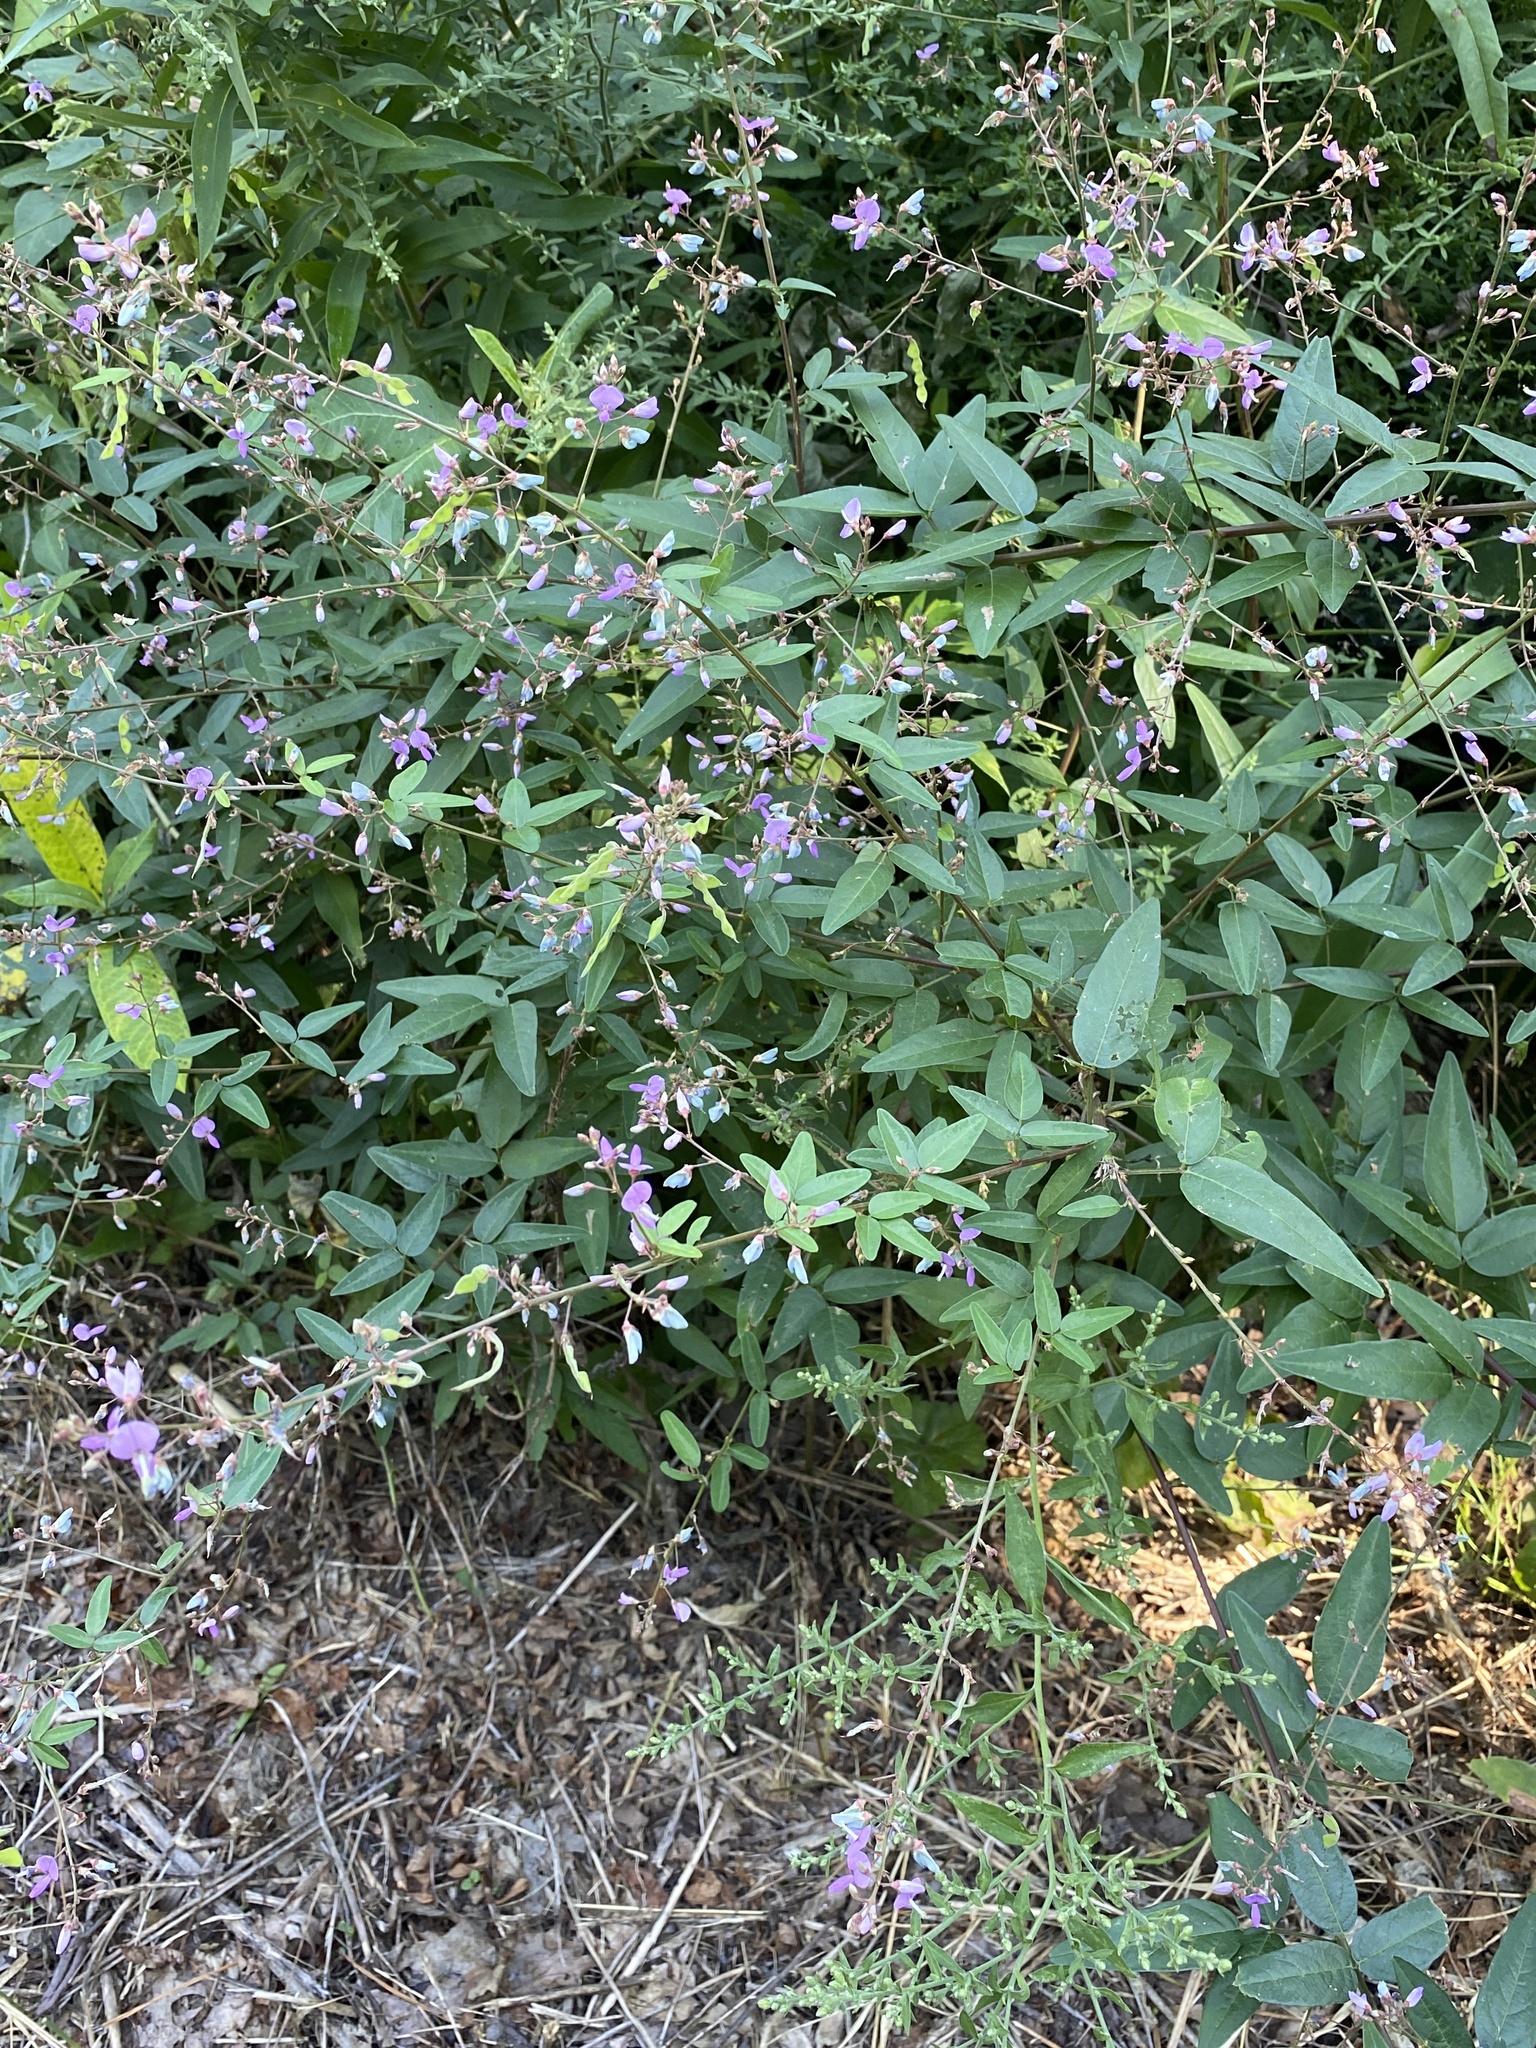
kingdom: Plantae
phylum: Tracheophyta
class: Magnoliopsida
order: Fabales
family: Fabaceae
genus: Desmodium
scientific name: Desmodium paniculatum
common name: Panicled tick-clover
